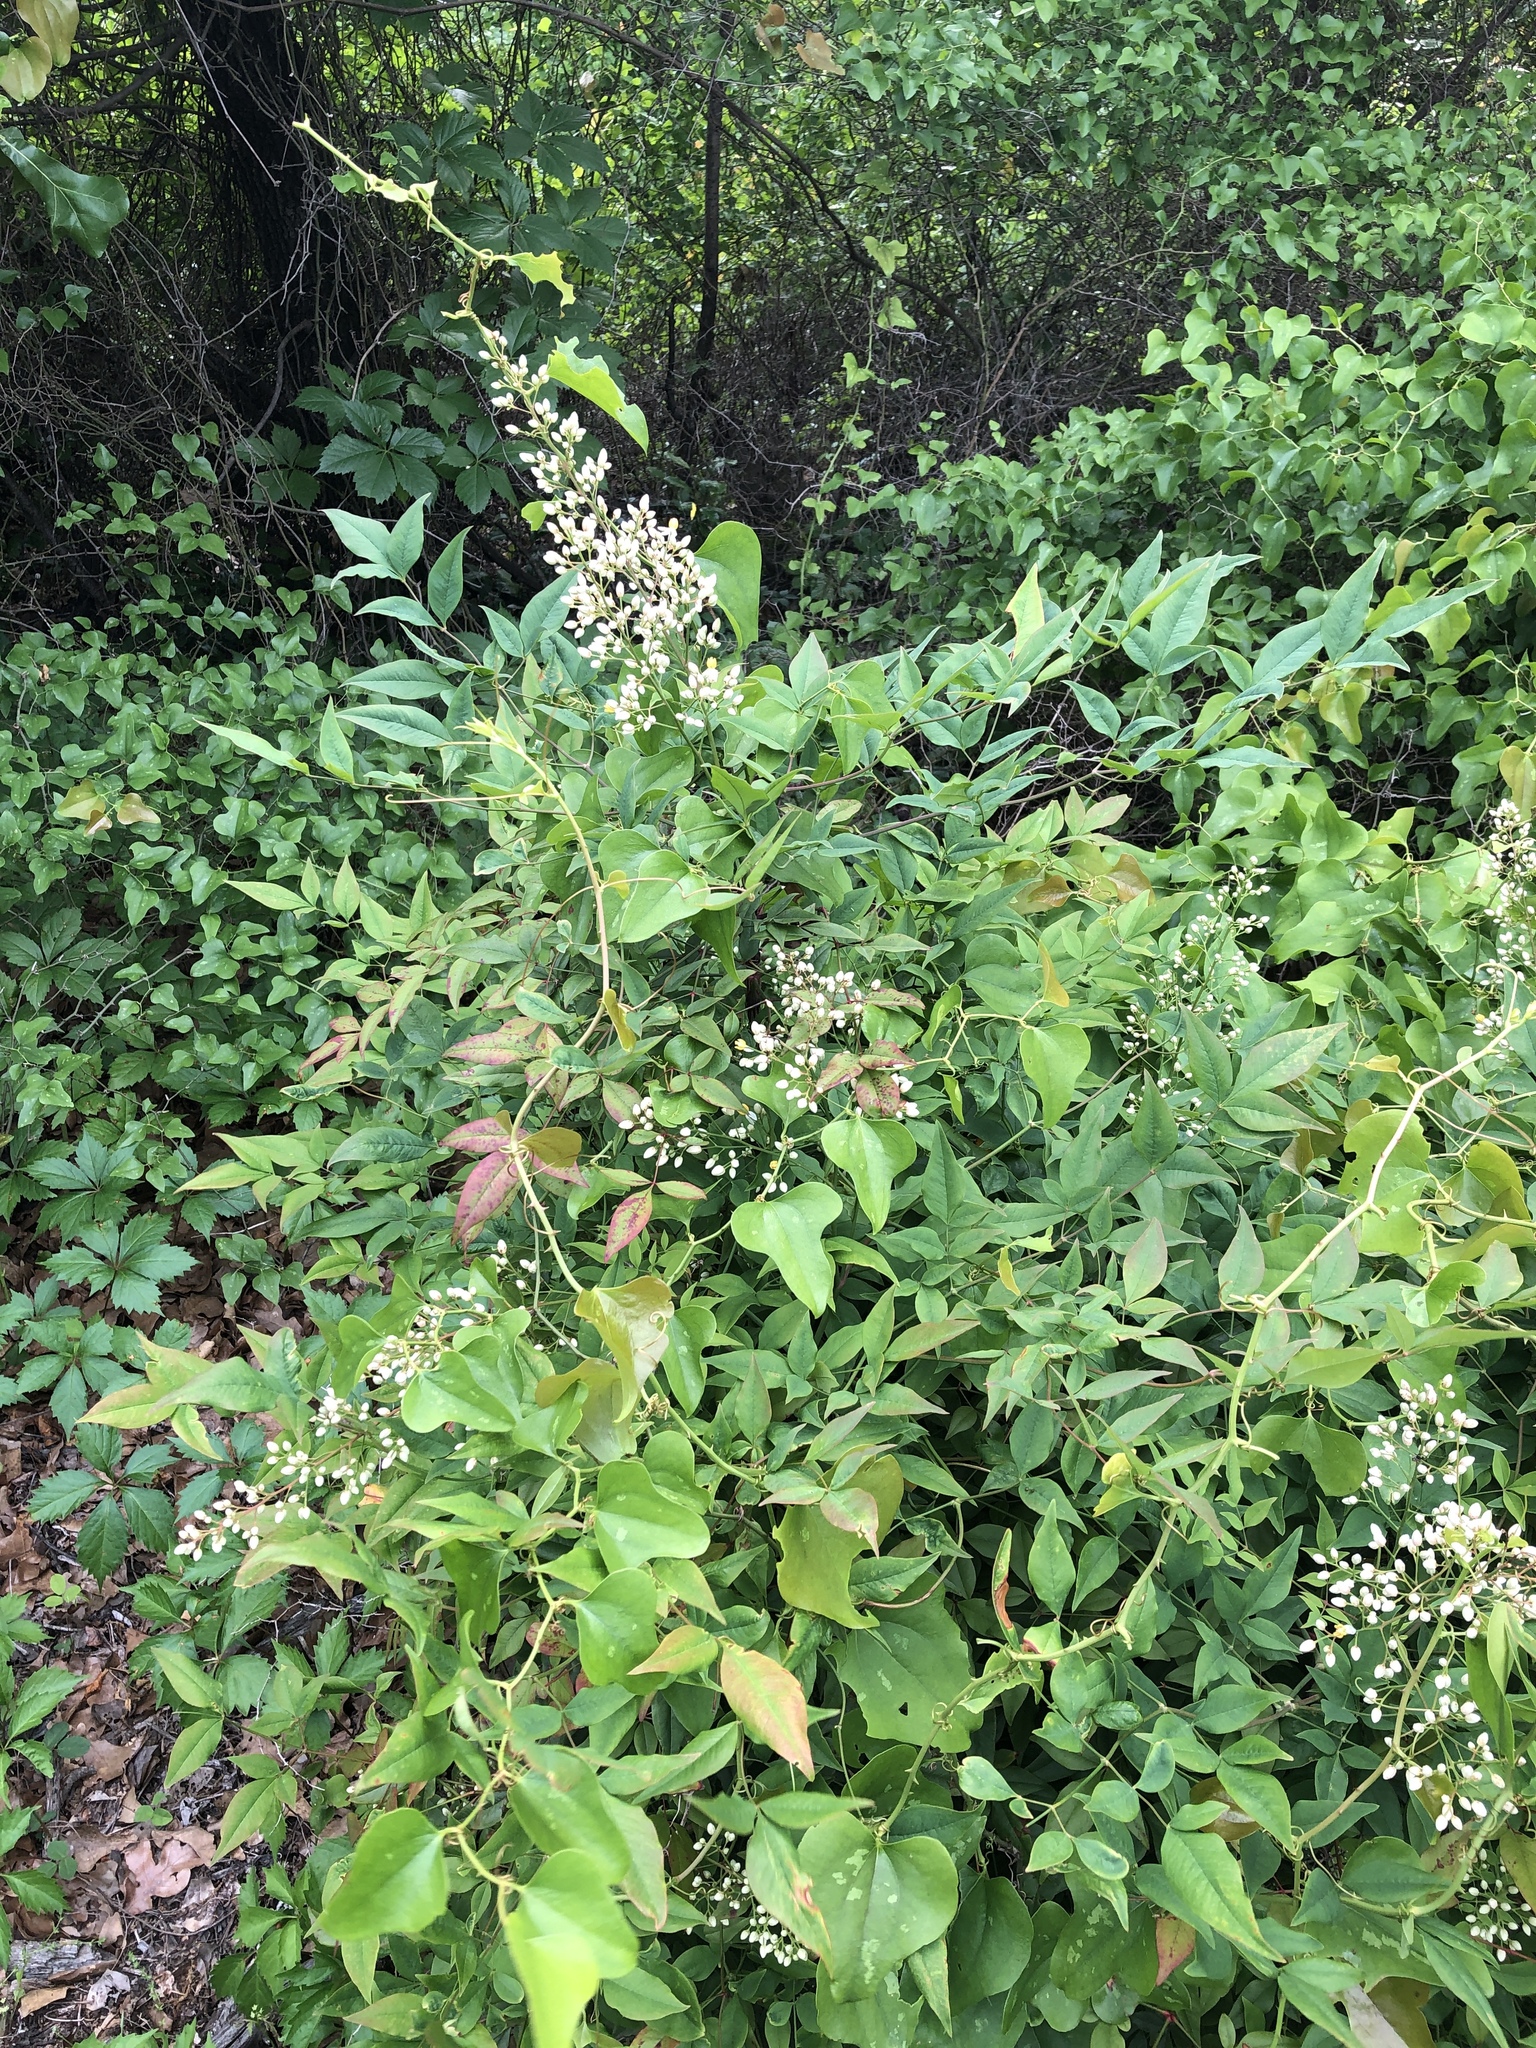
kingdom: Plantae
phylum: Tracheophyta
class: Magnoliopsida
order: Ranunculales
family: Berberidaceae
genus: Nandina
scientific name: Nandina domestica
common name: Sacred bamboo
